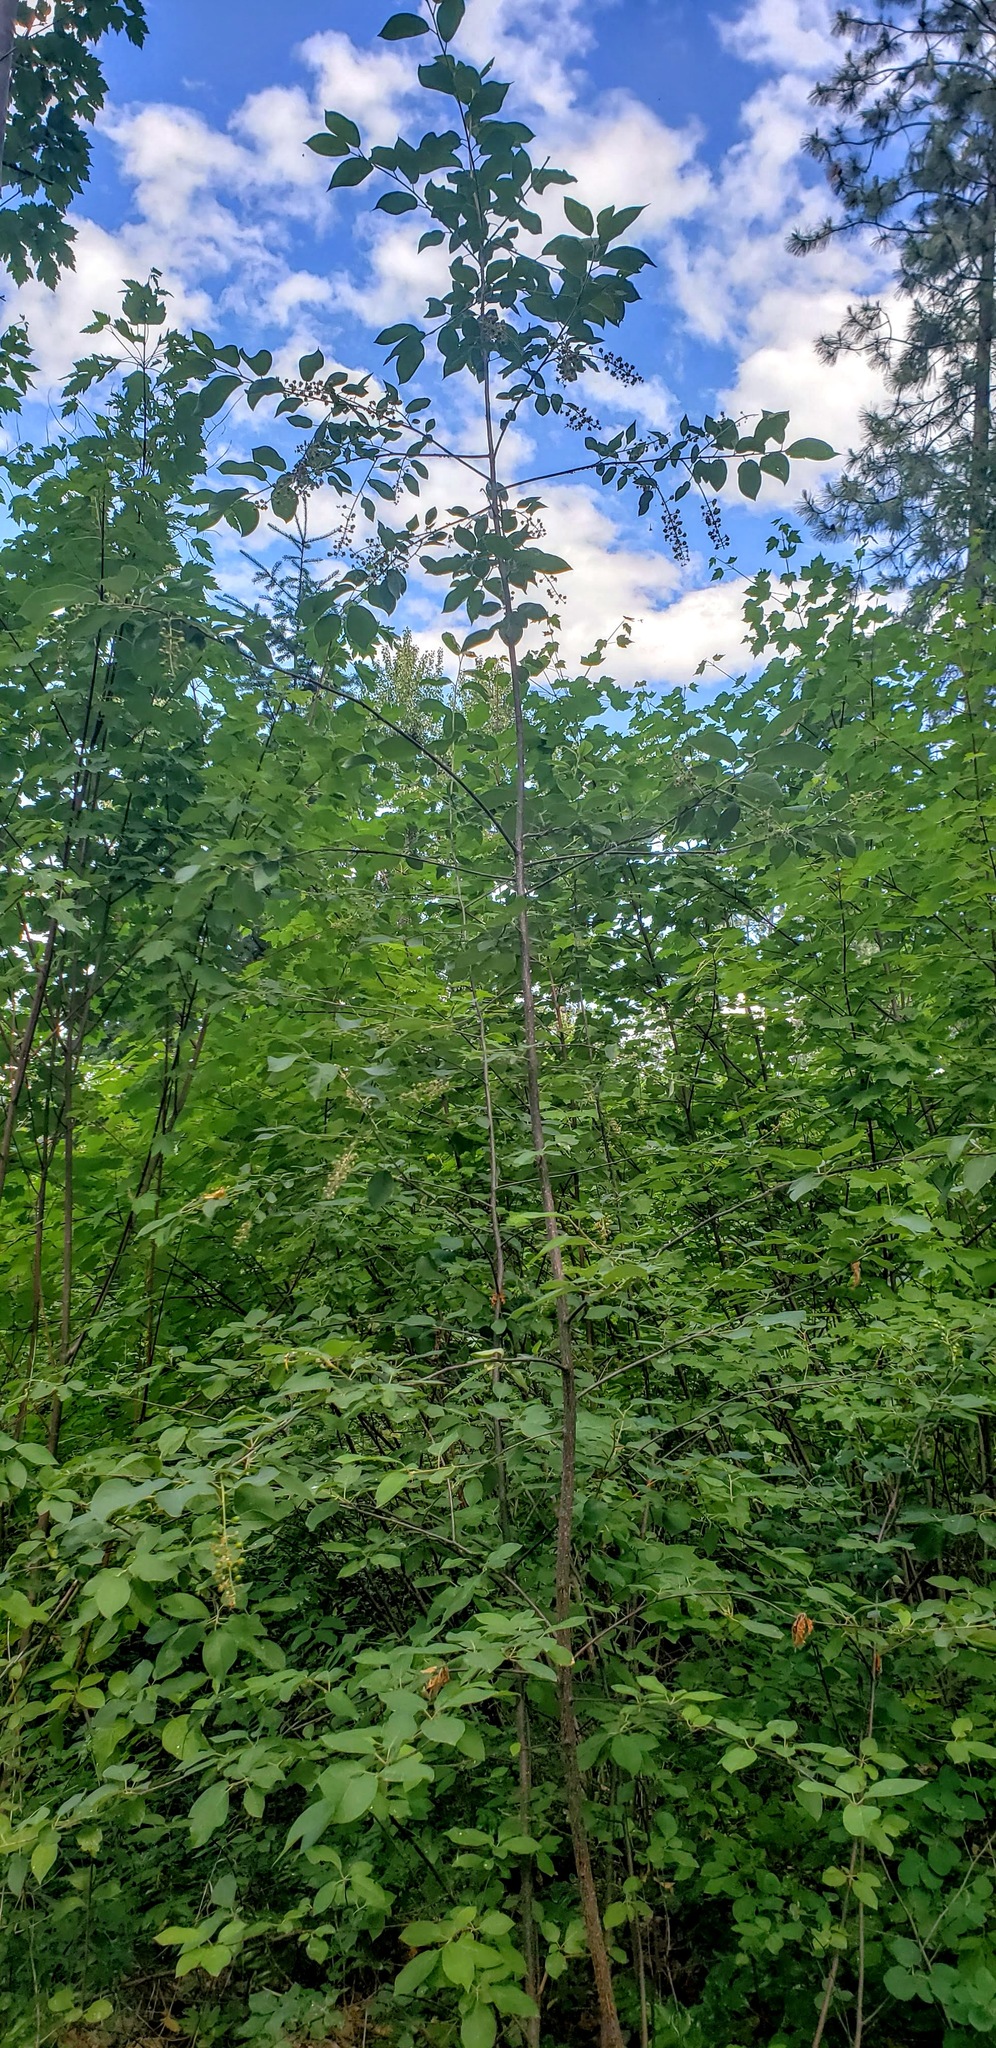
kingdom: Plantae
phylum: Tracheophyta
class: Magnoliopsida
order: Rosales
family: Rosaceae
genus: Prunus
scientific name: Prunus virginiana
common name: Chokecherry
